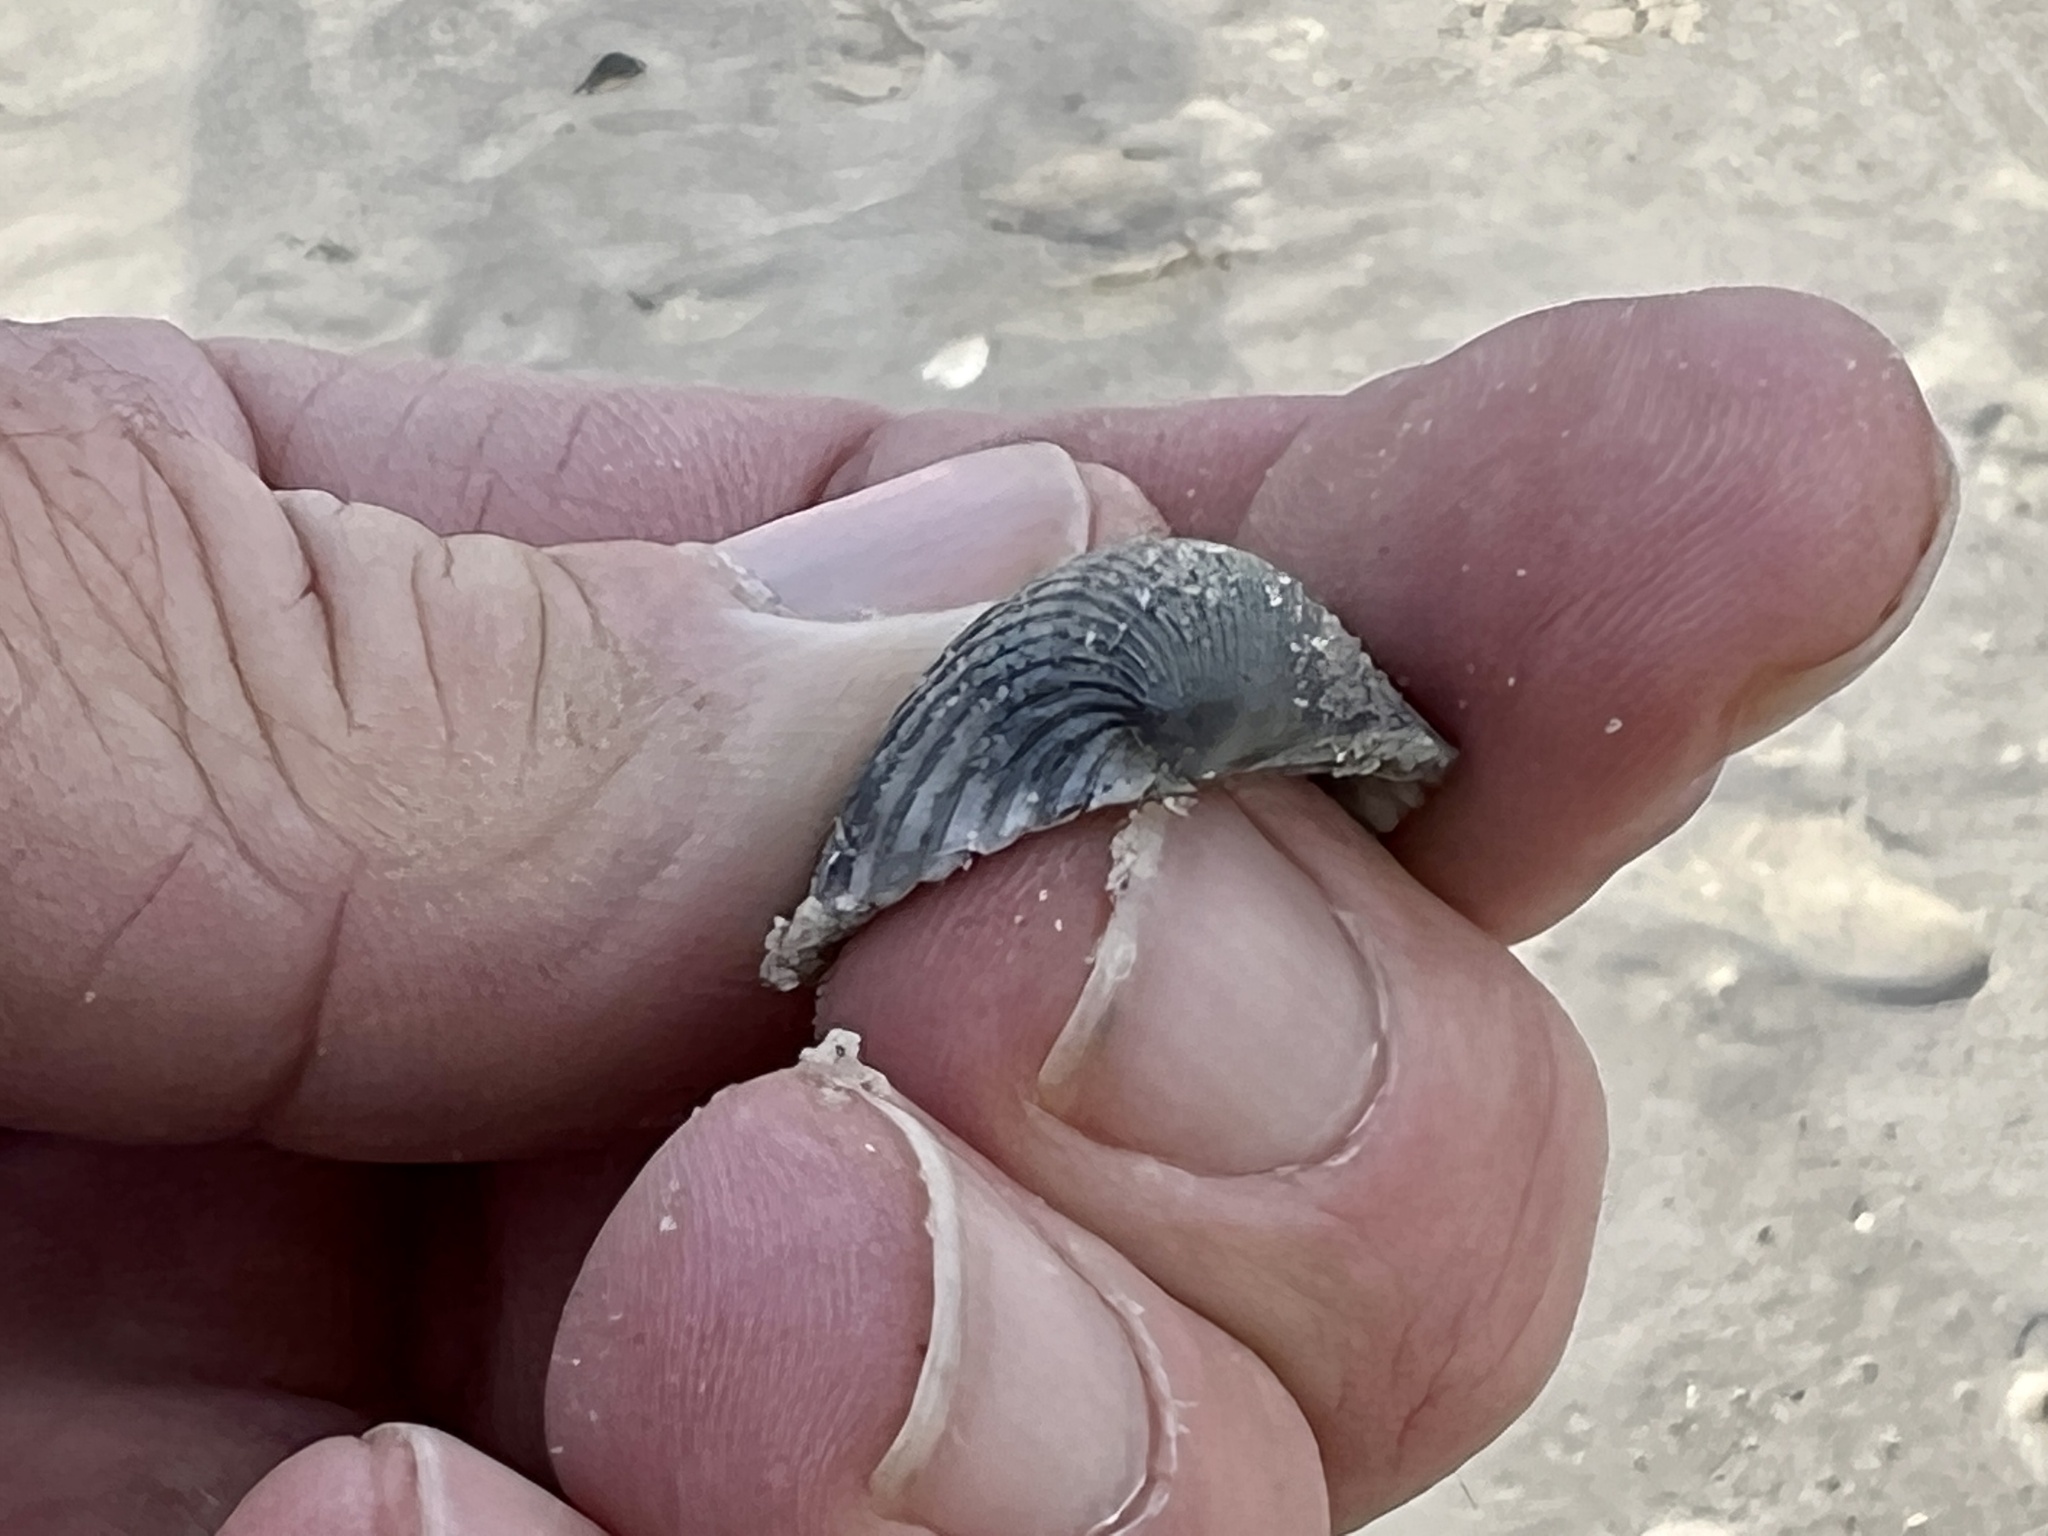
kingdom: Animalia
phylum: Mollusca
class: Bivalvia
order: Arcida
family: Arcidae
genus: Lunarca
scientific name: Lunarca ovalis
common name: Blood ark
